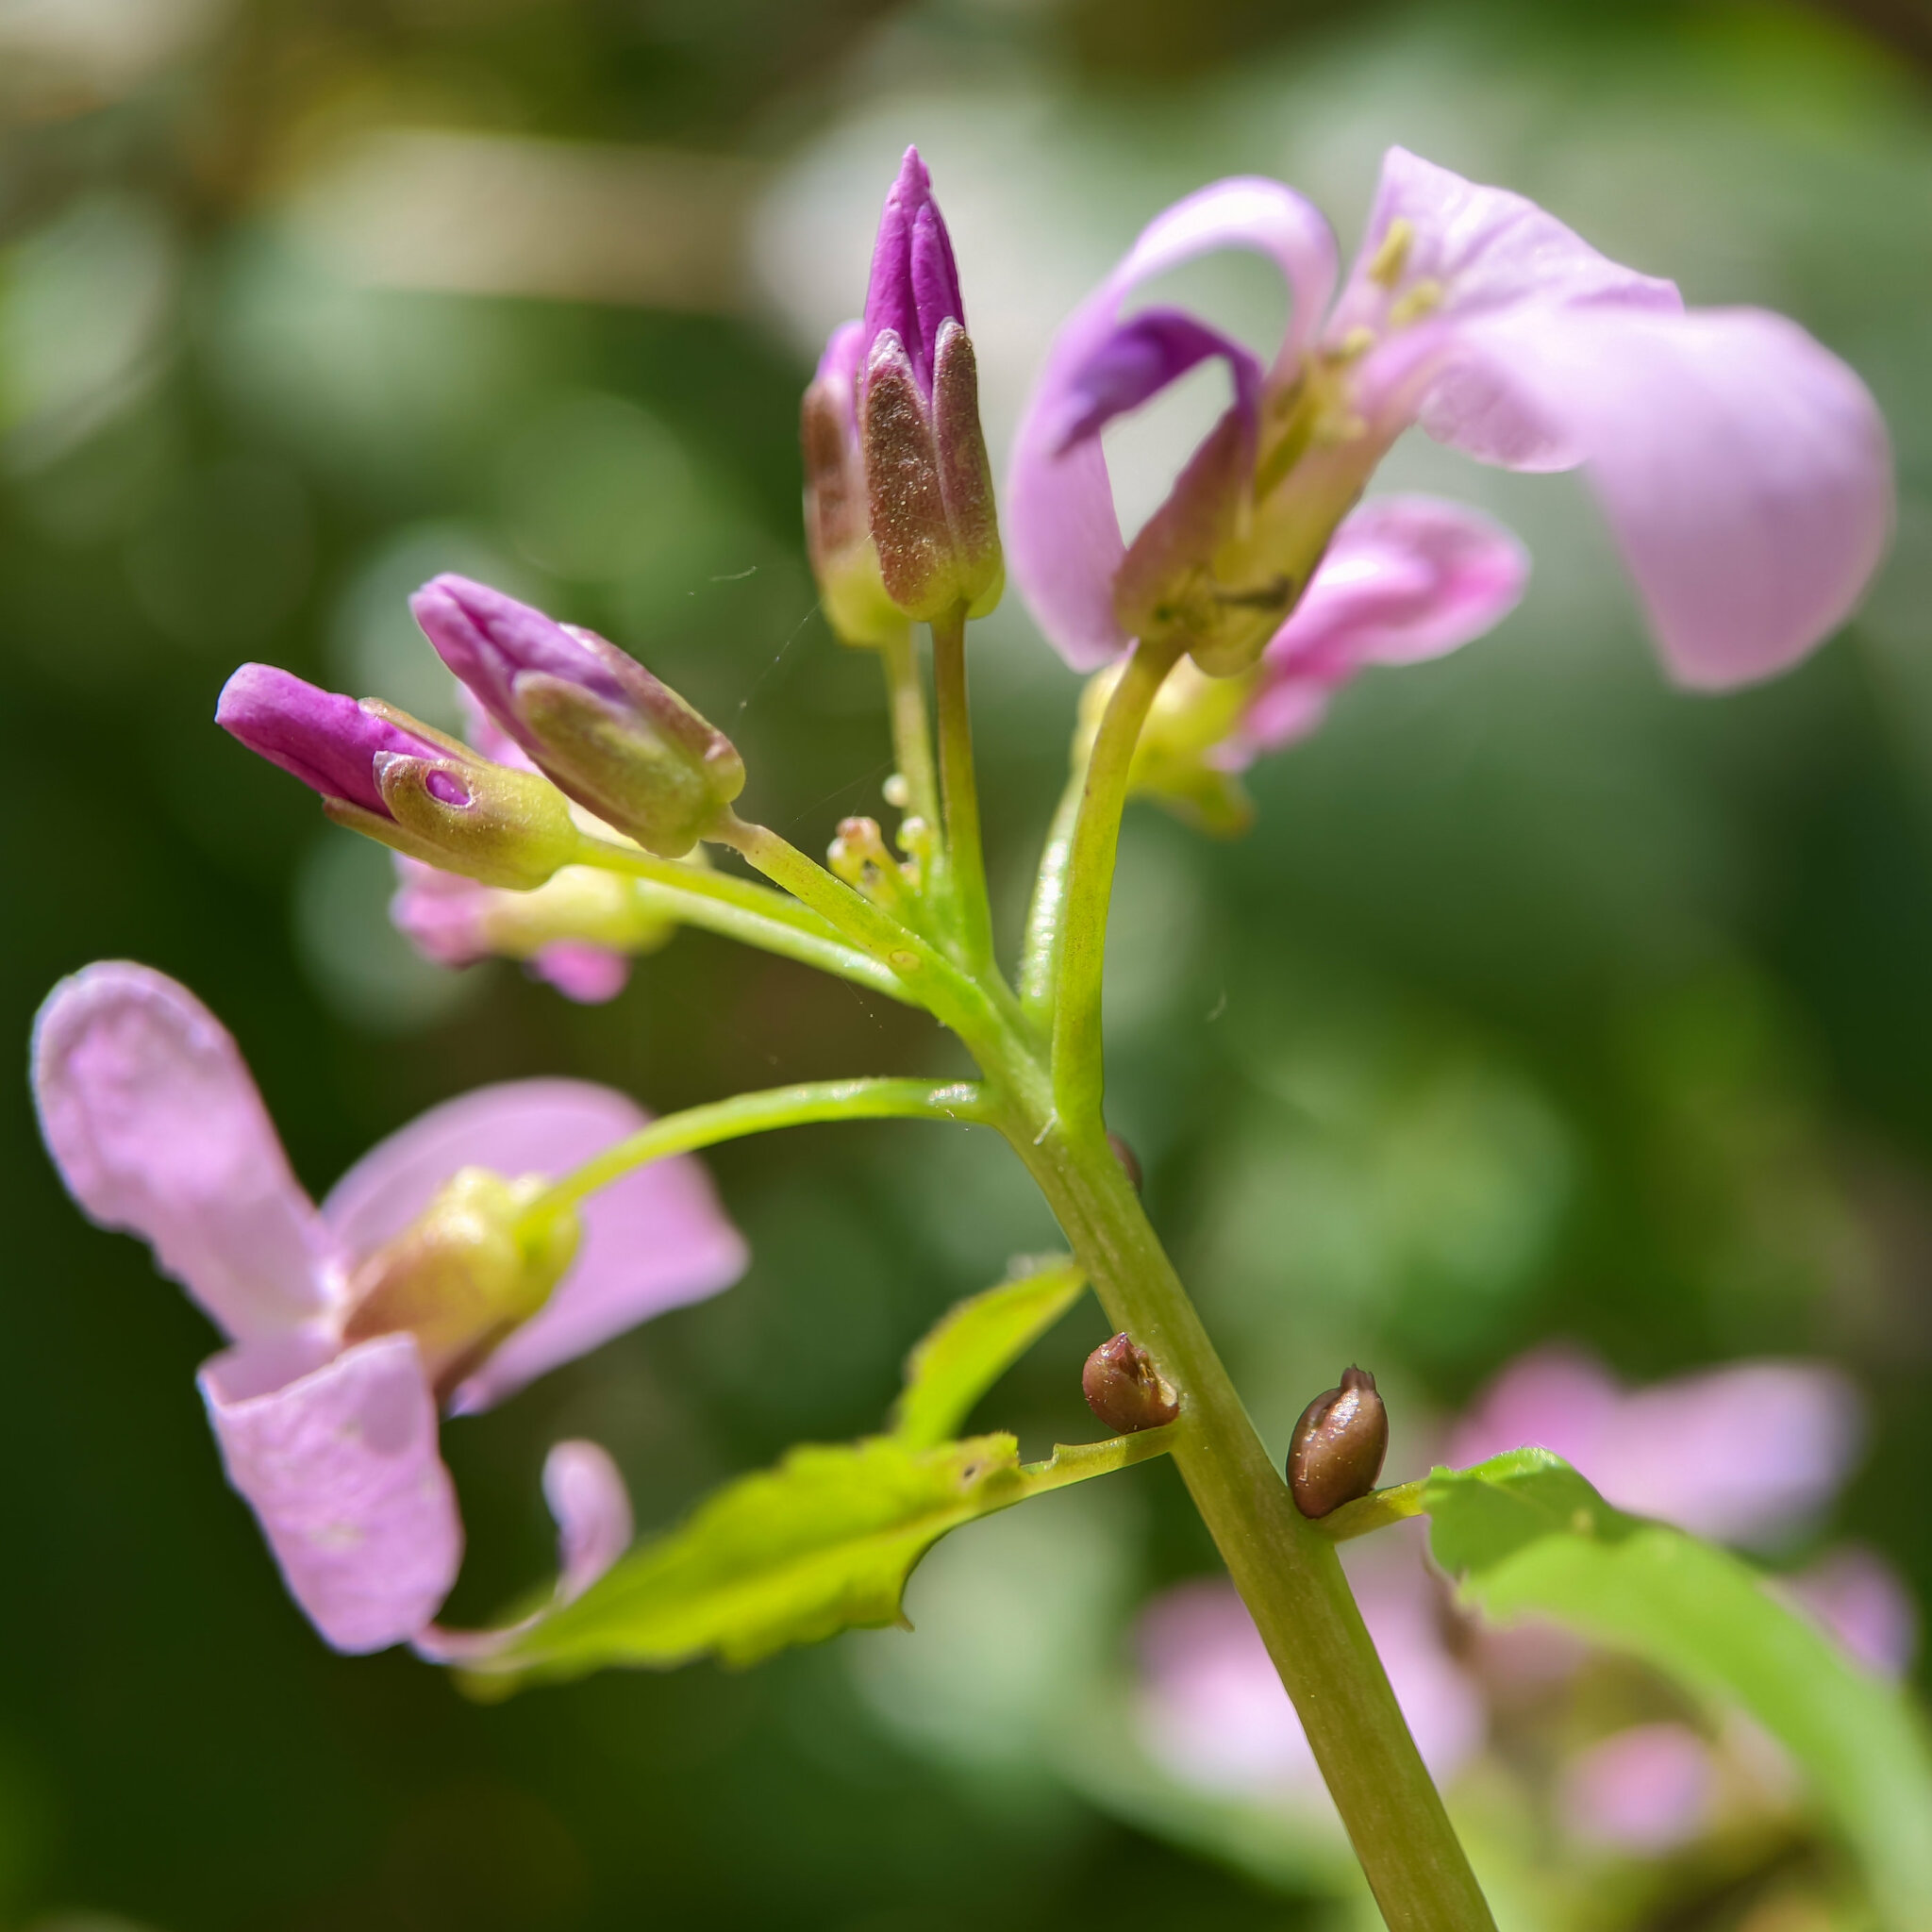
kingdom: Plantae
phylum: Tracheophyta
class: Magnoliopsida
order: Brassicales
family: Brassicaceae
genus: Cardamine
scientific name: Cardamine bulbifera
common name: Coralroot bittercress
